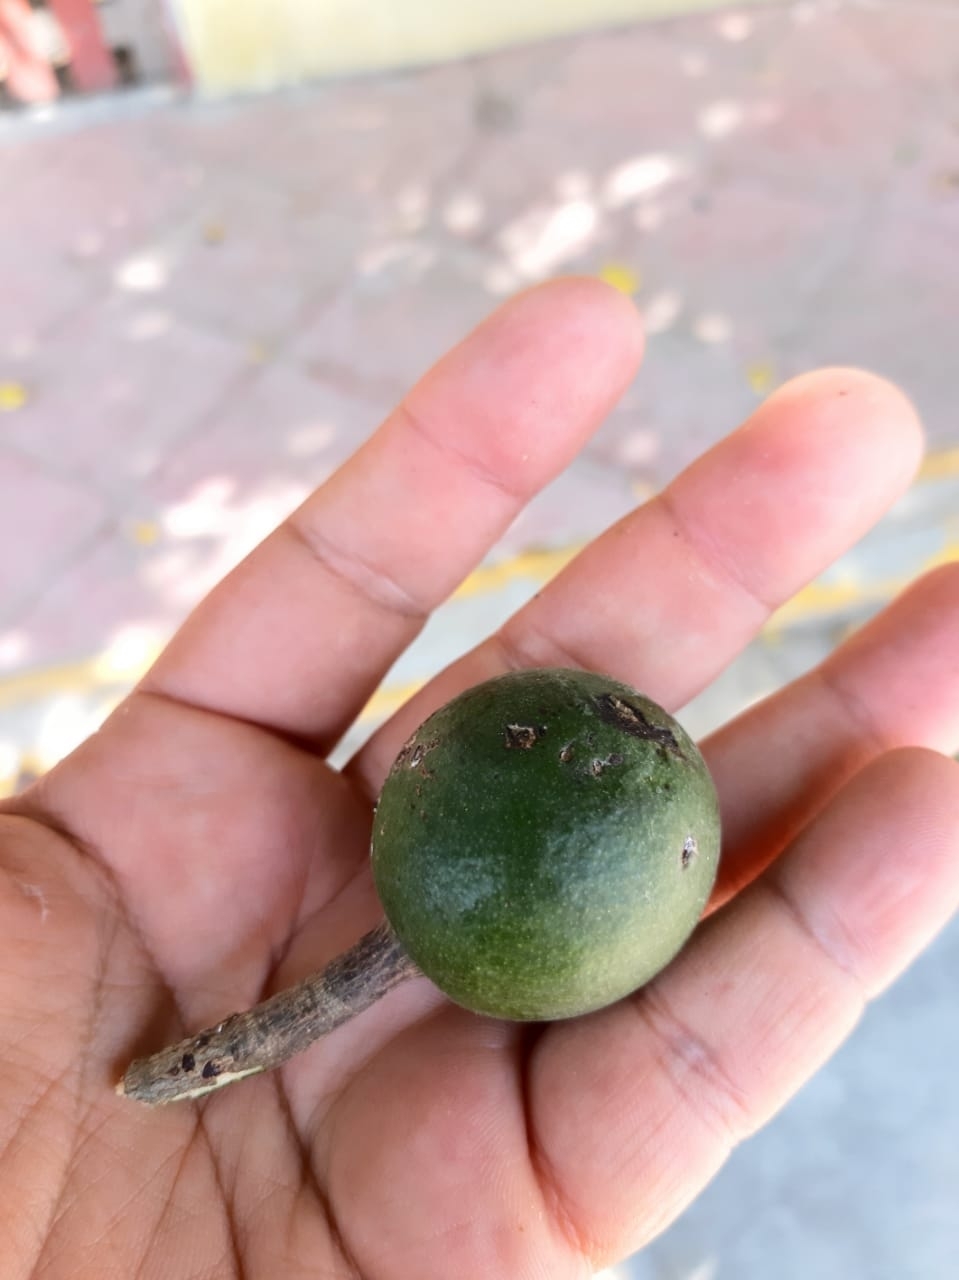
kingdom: Plantae
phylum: Tracheophyta
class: Magnoliopsida
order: Brassicales
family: Capparaceae
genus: Crateva
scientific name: Crateva tapia
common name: Garlic-pear
